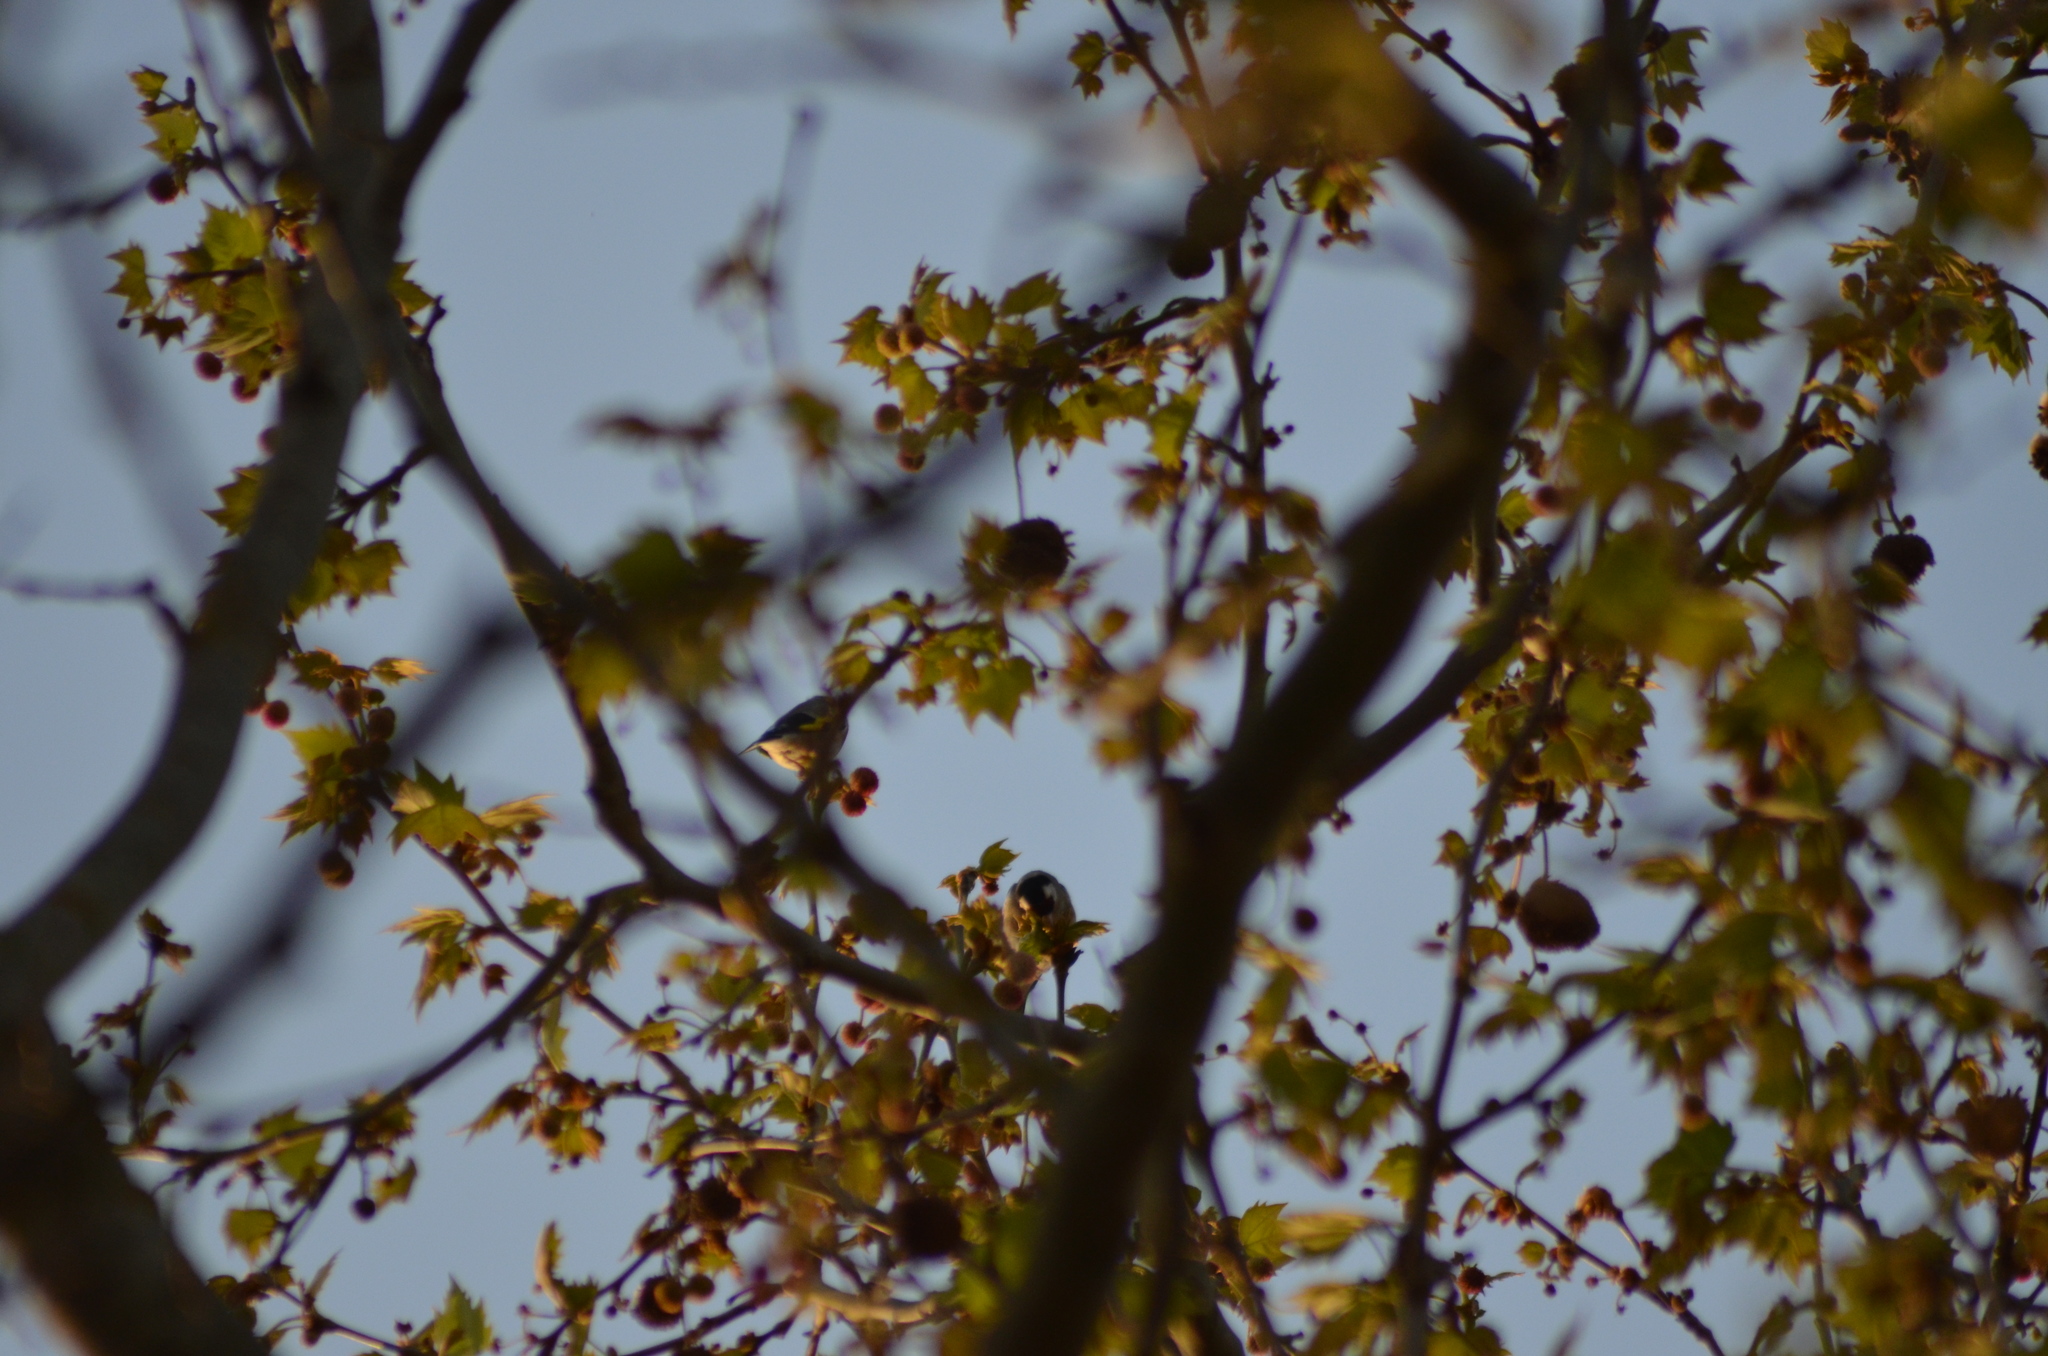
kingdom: Animalia
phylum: Chordata
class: Aves
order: Passeriformes
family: Fringillidae
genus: Carduelis
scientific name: Carduelis carduelis
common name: European goldfinch
